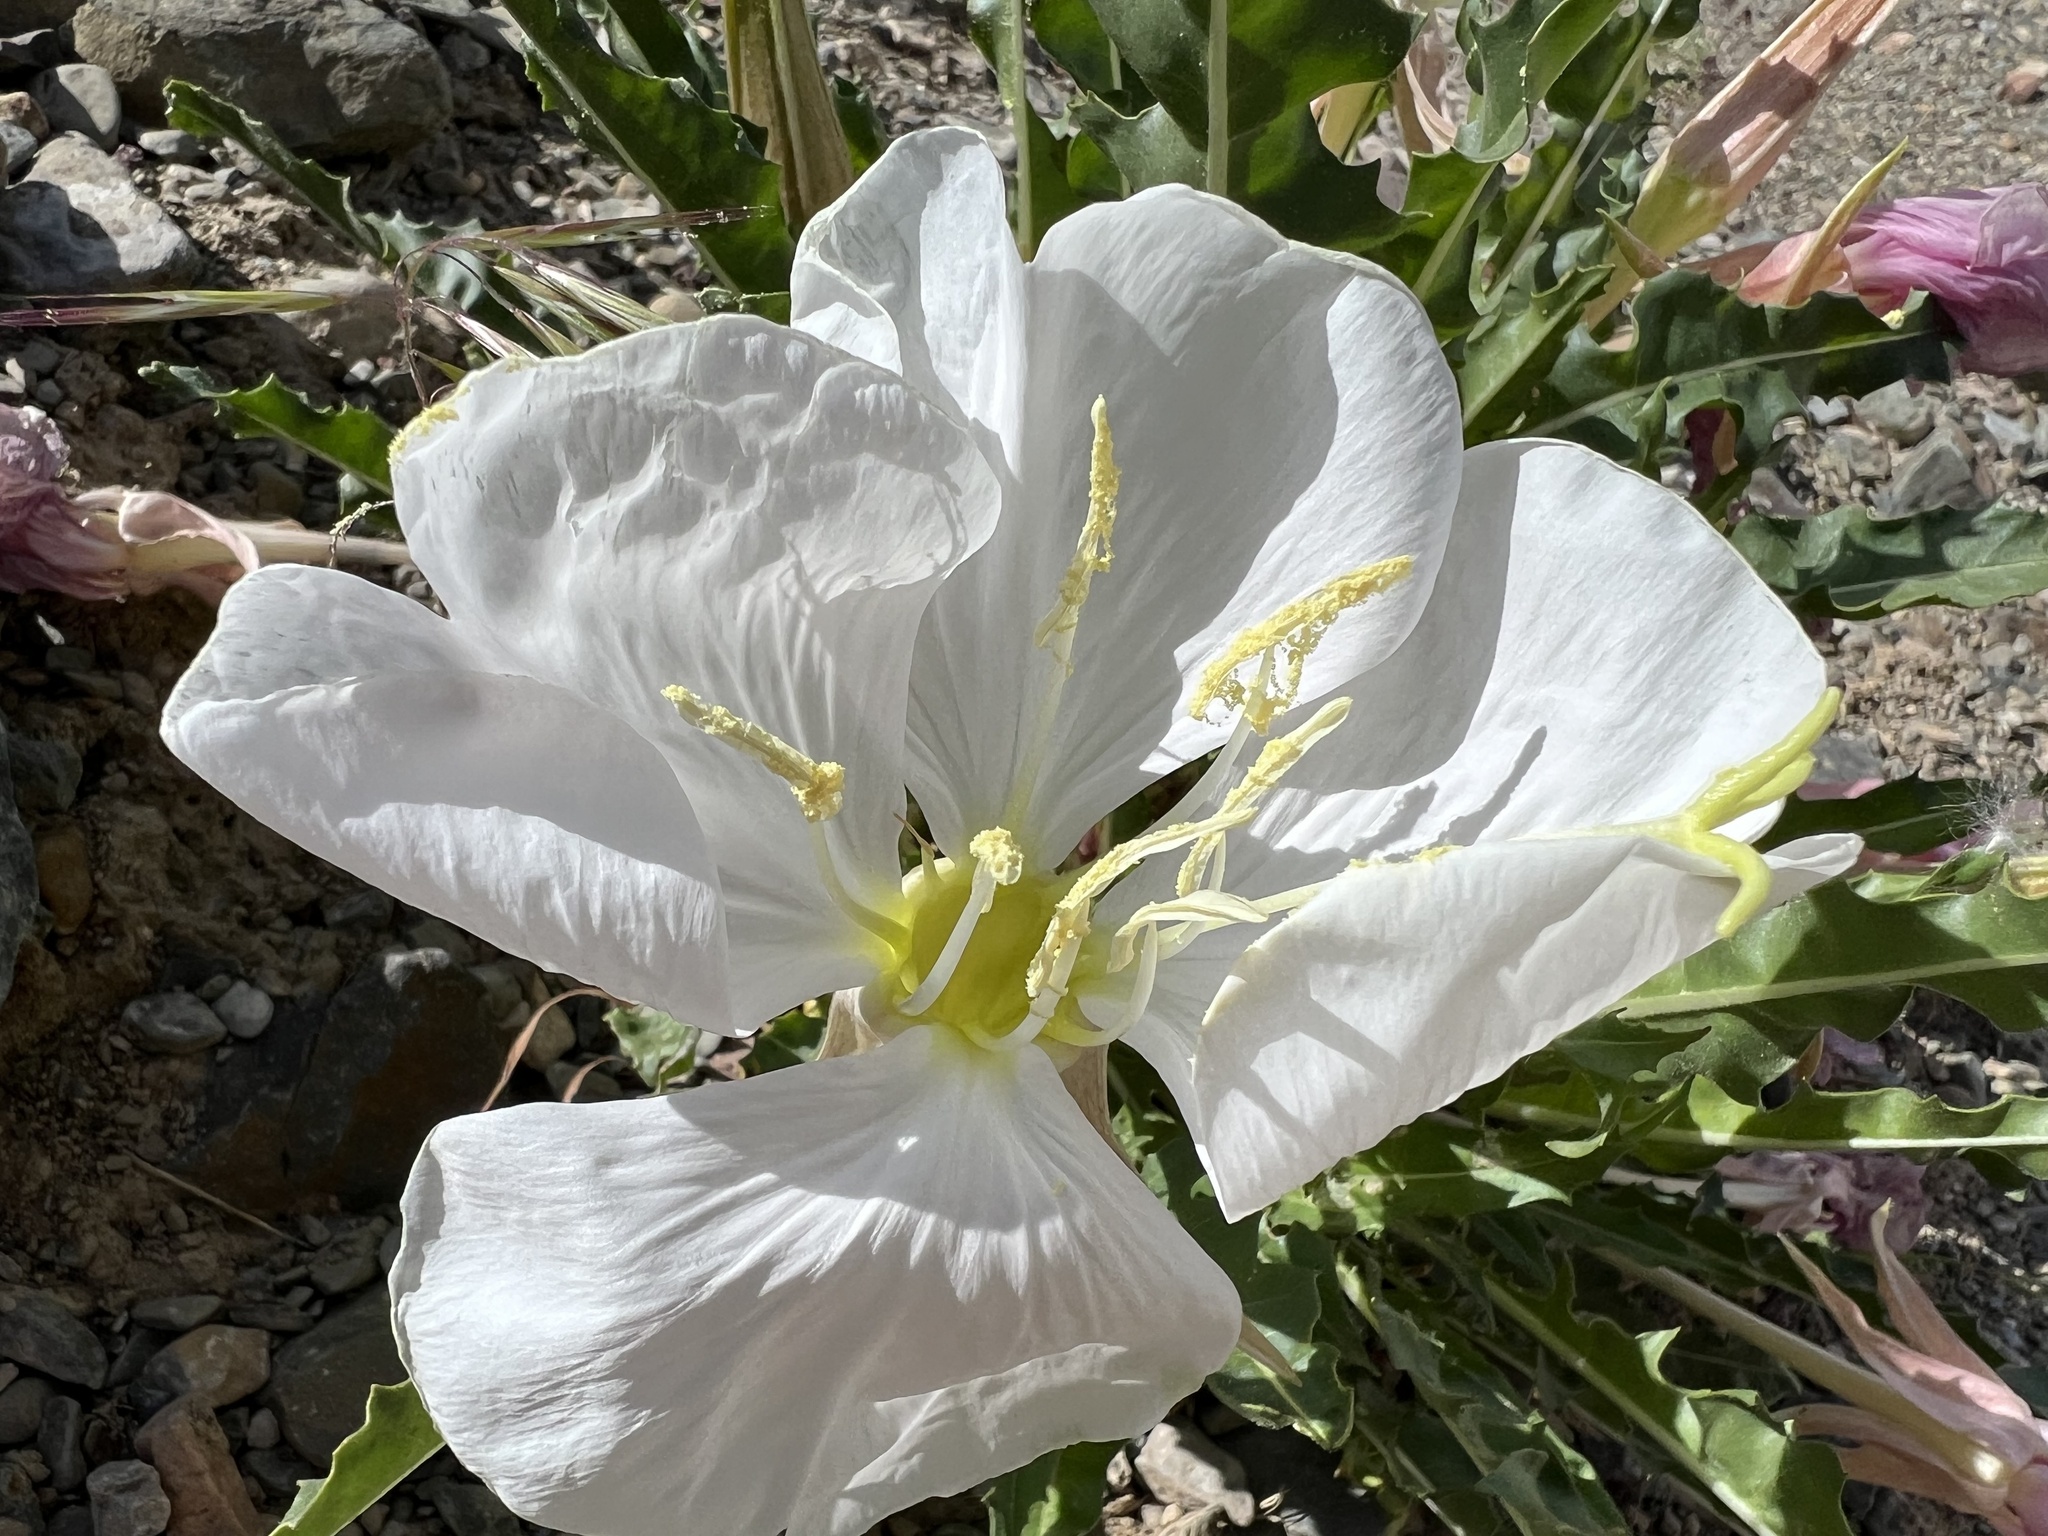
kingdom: Plantae
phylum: Tracheophyta
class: Magnoliopsida
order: Myrtales
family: Onagraceae
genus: Oenothera
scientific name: Oenothera cespitosa
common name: Tufted evening-primrose
